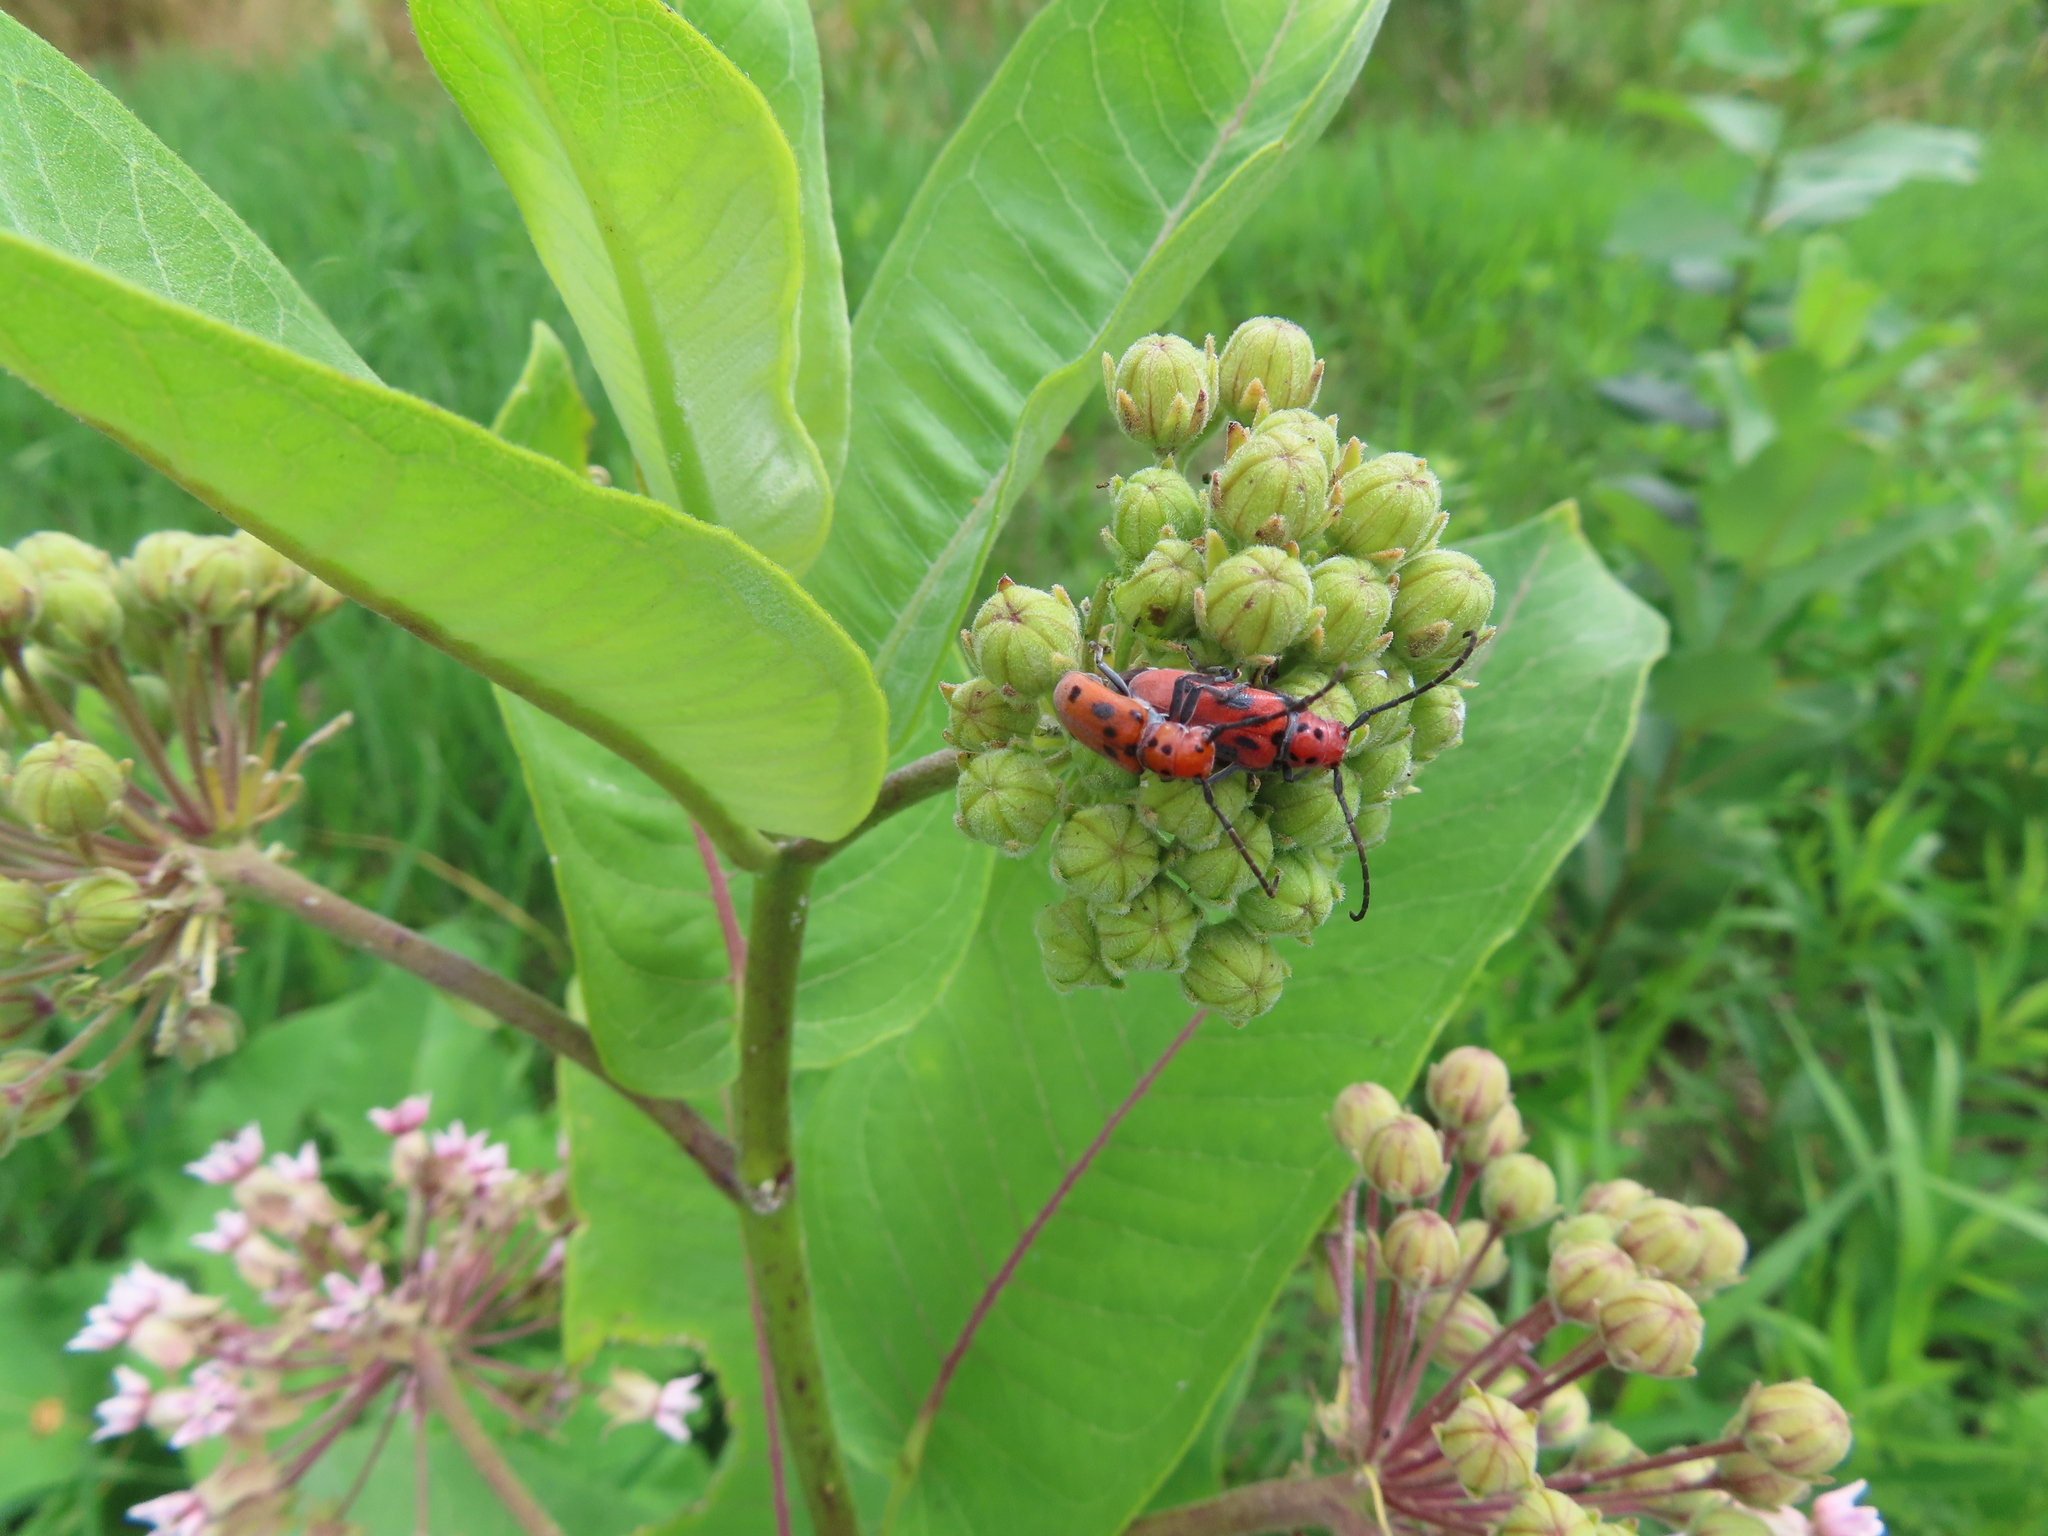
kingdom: Animalia
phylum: Arthropoda
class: Insecta
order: Coleoptera
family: Cerambycidae
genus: Tetraopes
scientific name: Tetraopes tetrophthalmus
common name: Red milkweed beetle
